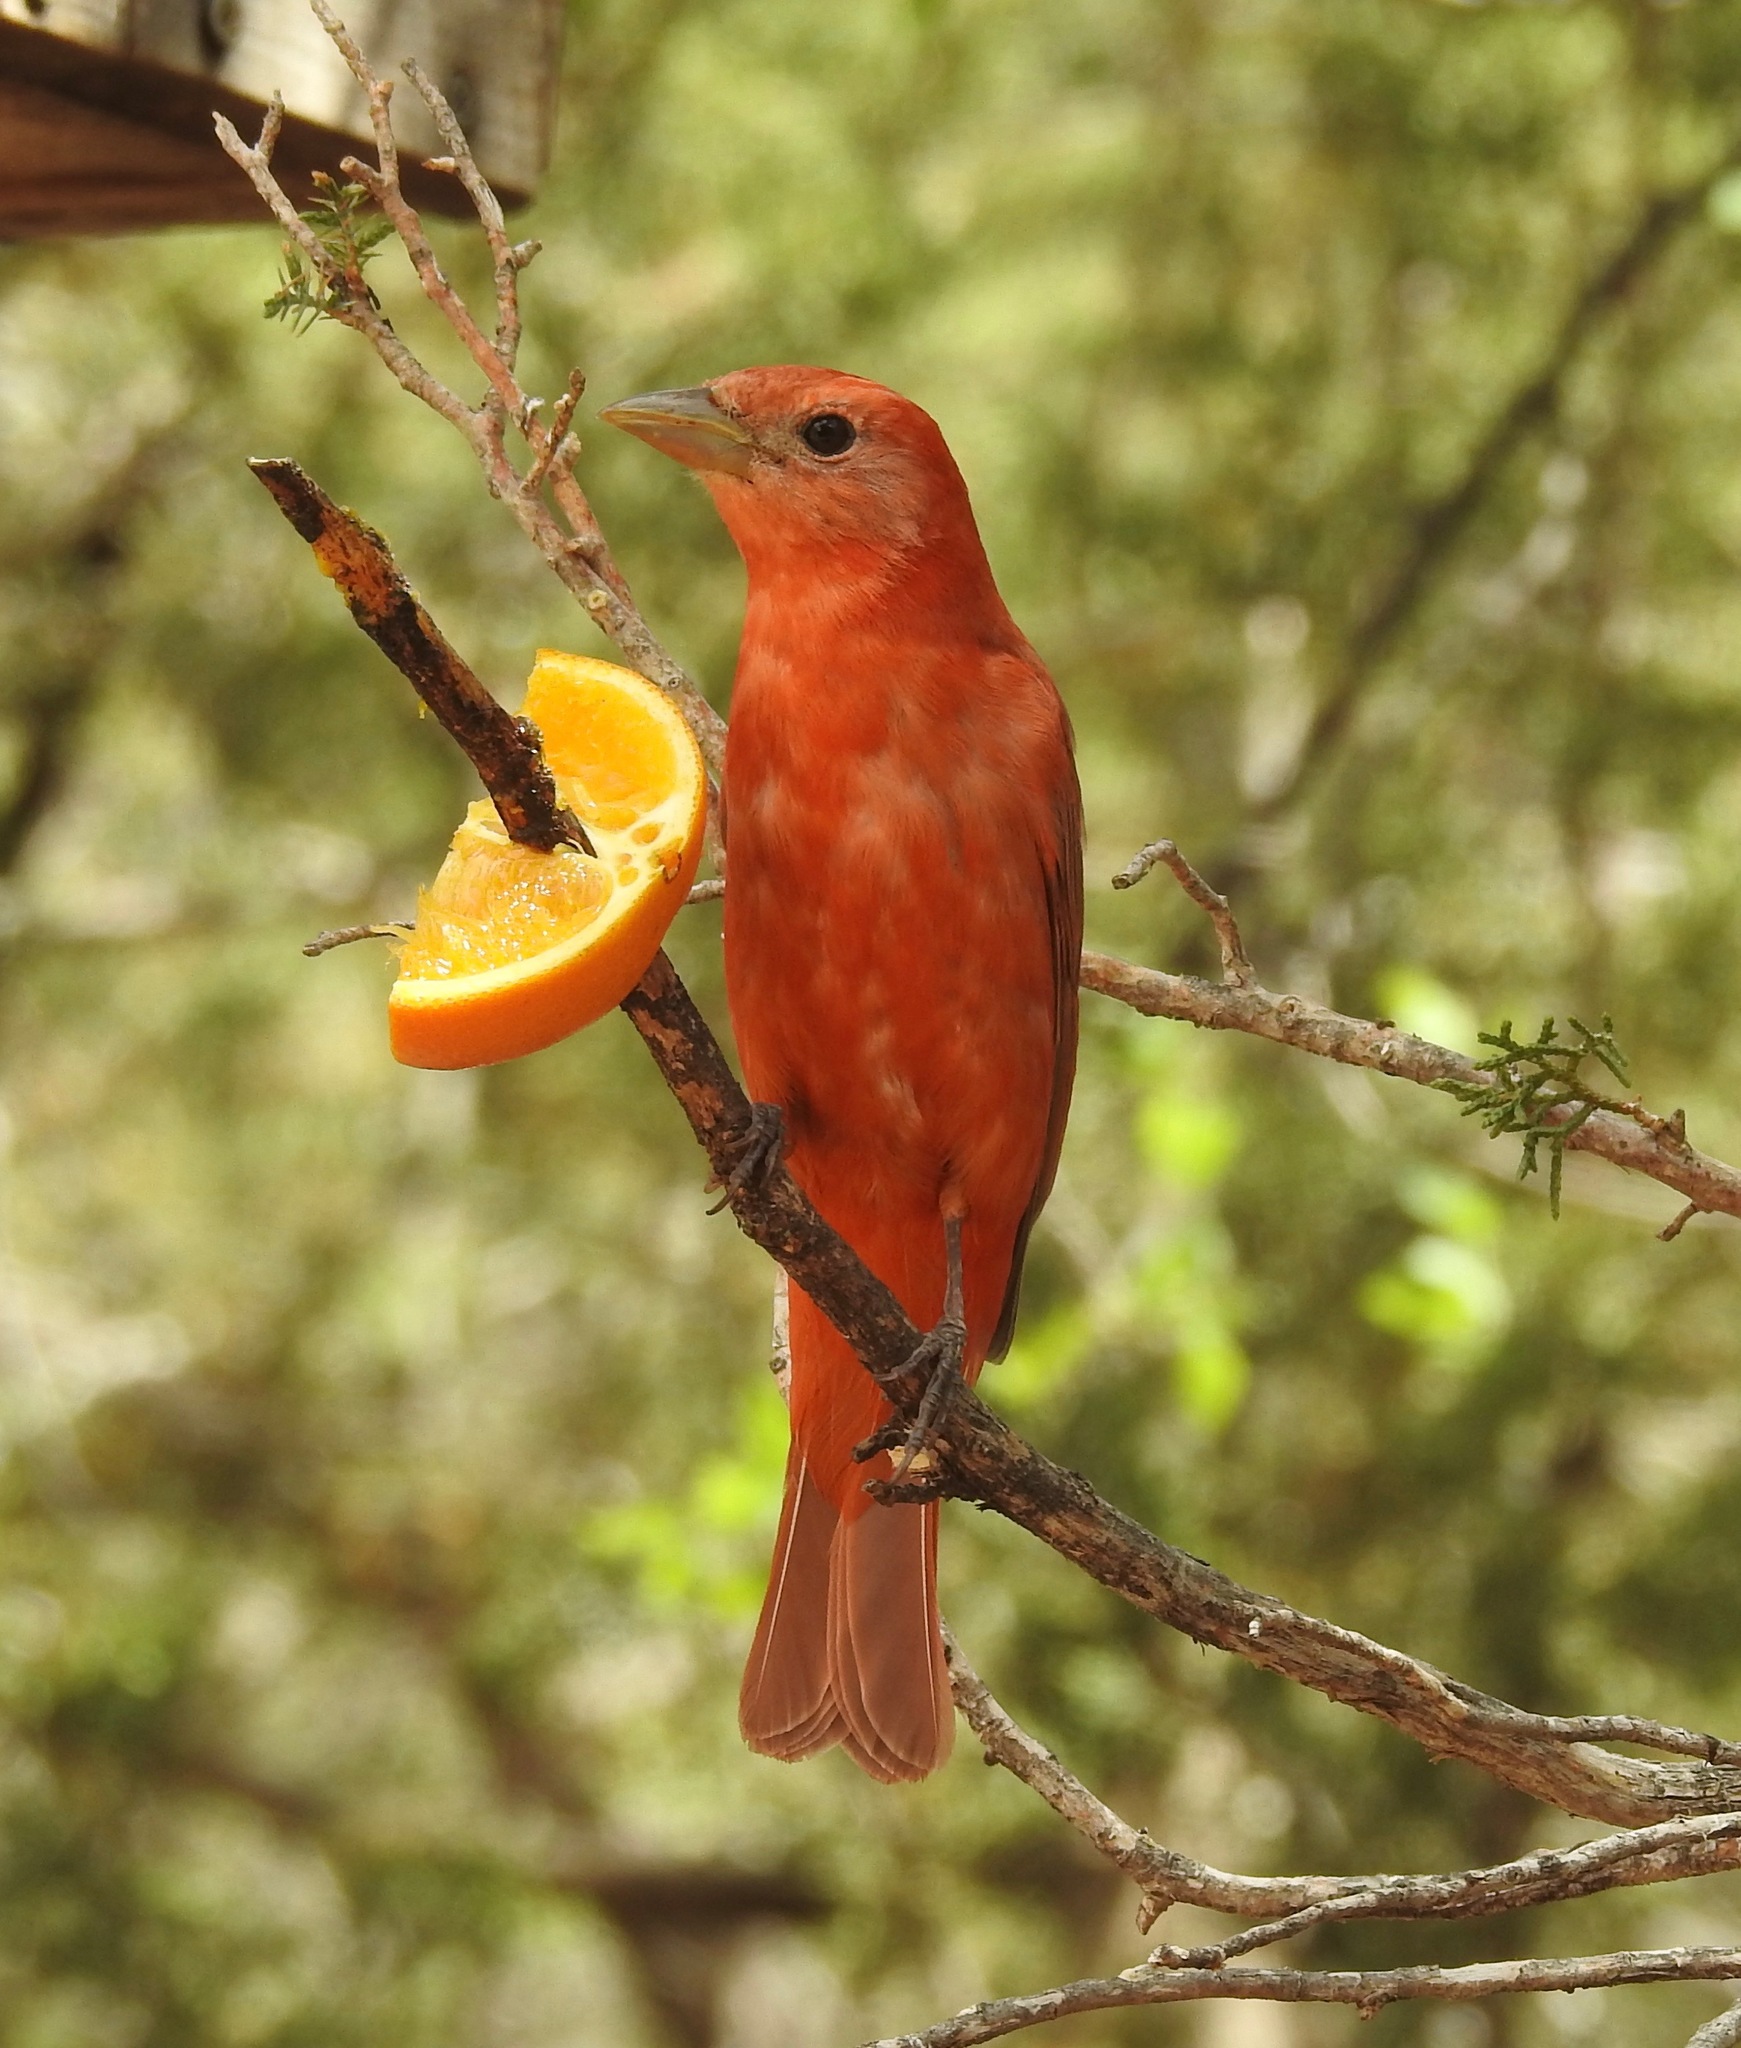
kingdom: Animalia
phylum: Chordata
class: Aves
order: Passeriformes
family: Cardinalidae
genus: Piranga
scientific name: Piranga rubra
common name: Summer tanager
